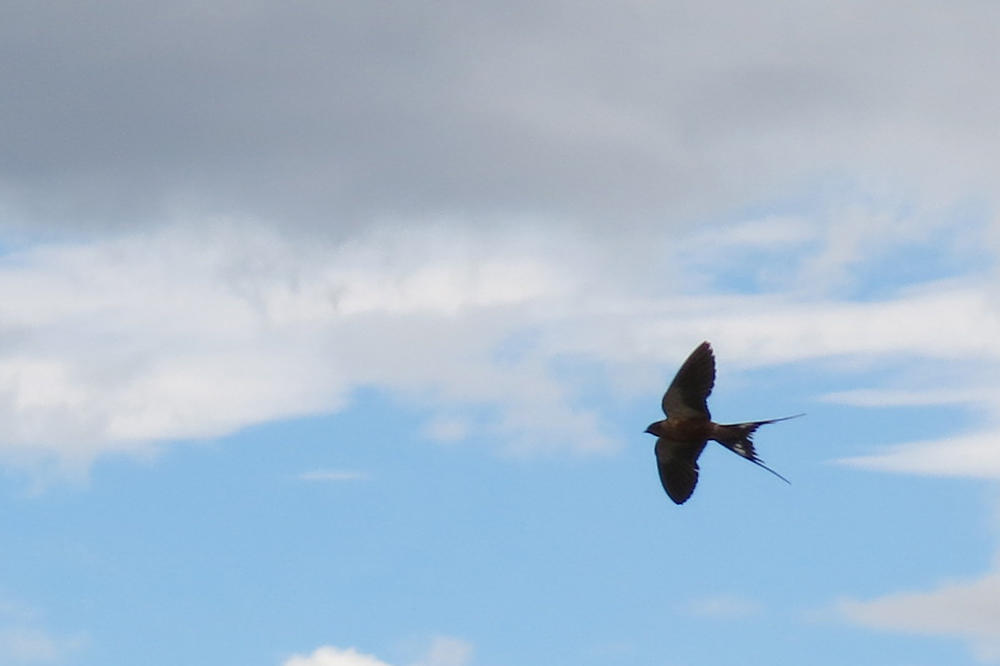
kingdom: Animalia
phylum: Chordata
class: Aves
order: Passeriformes
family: Hirundinidae
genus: Cecropis
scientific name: Cecropis semirufa
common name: Red-breasted swallow
